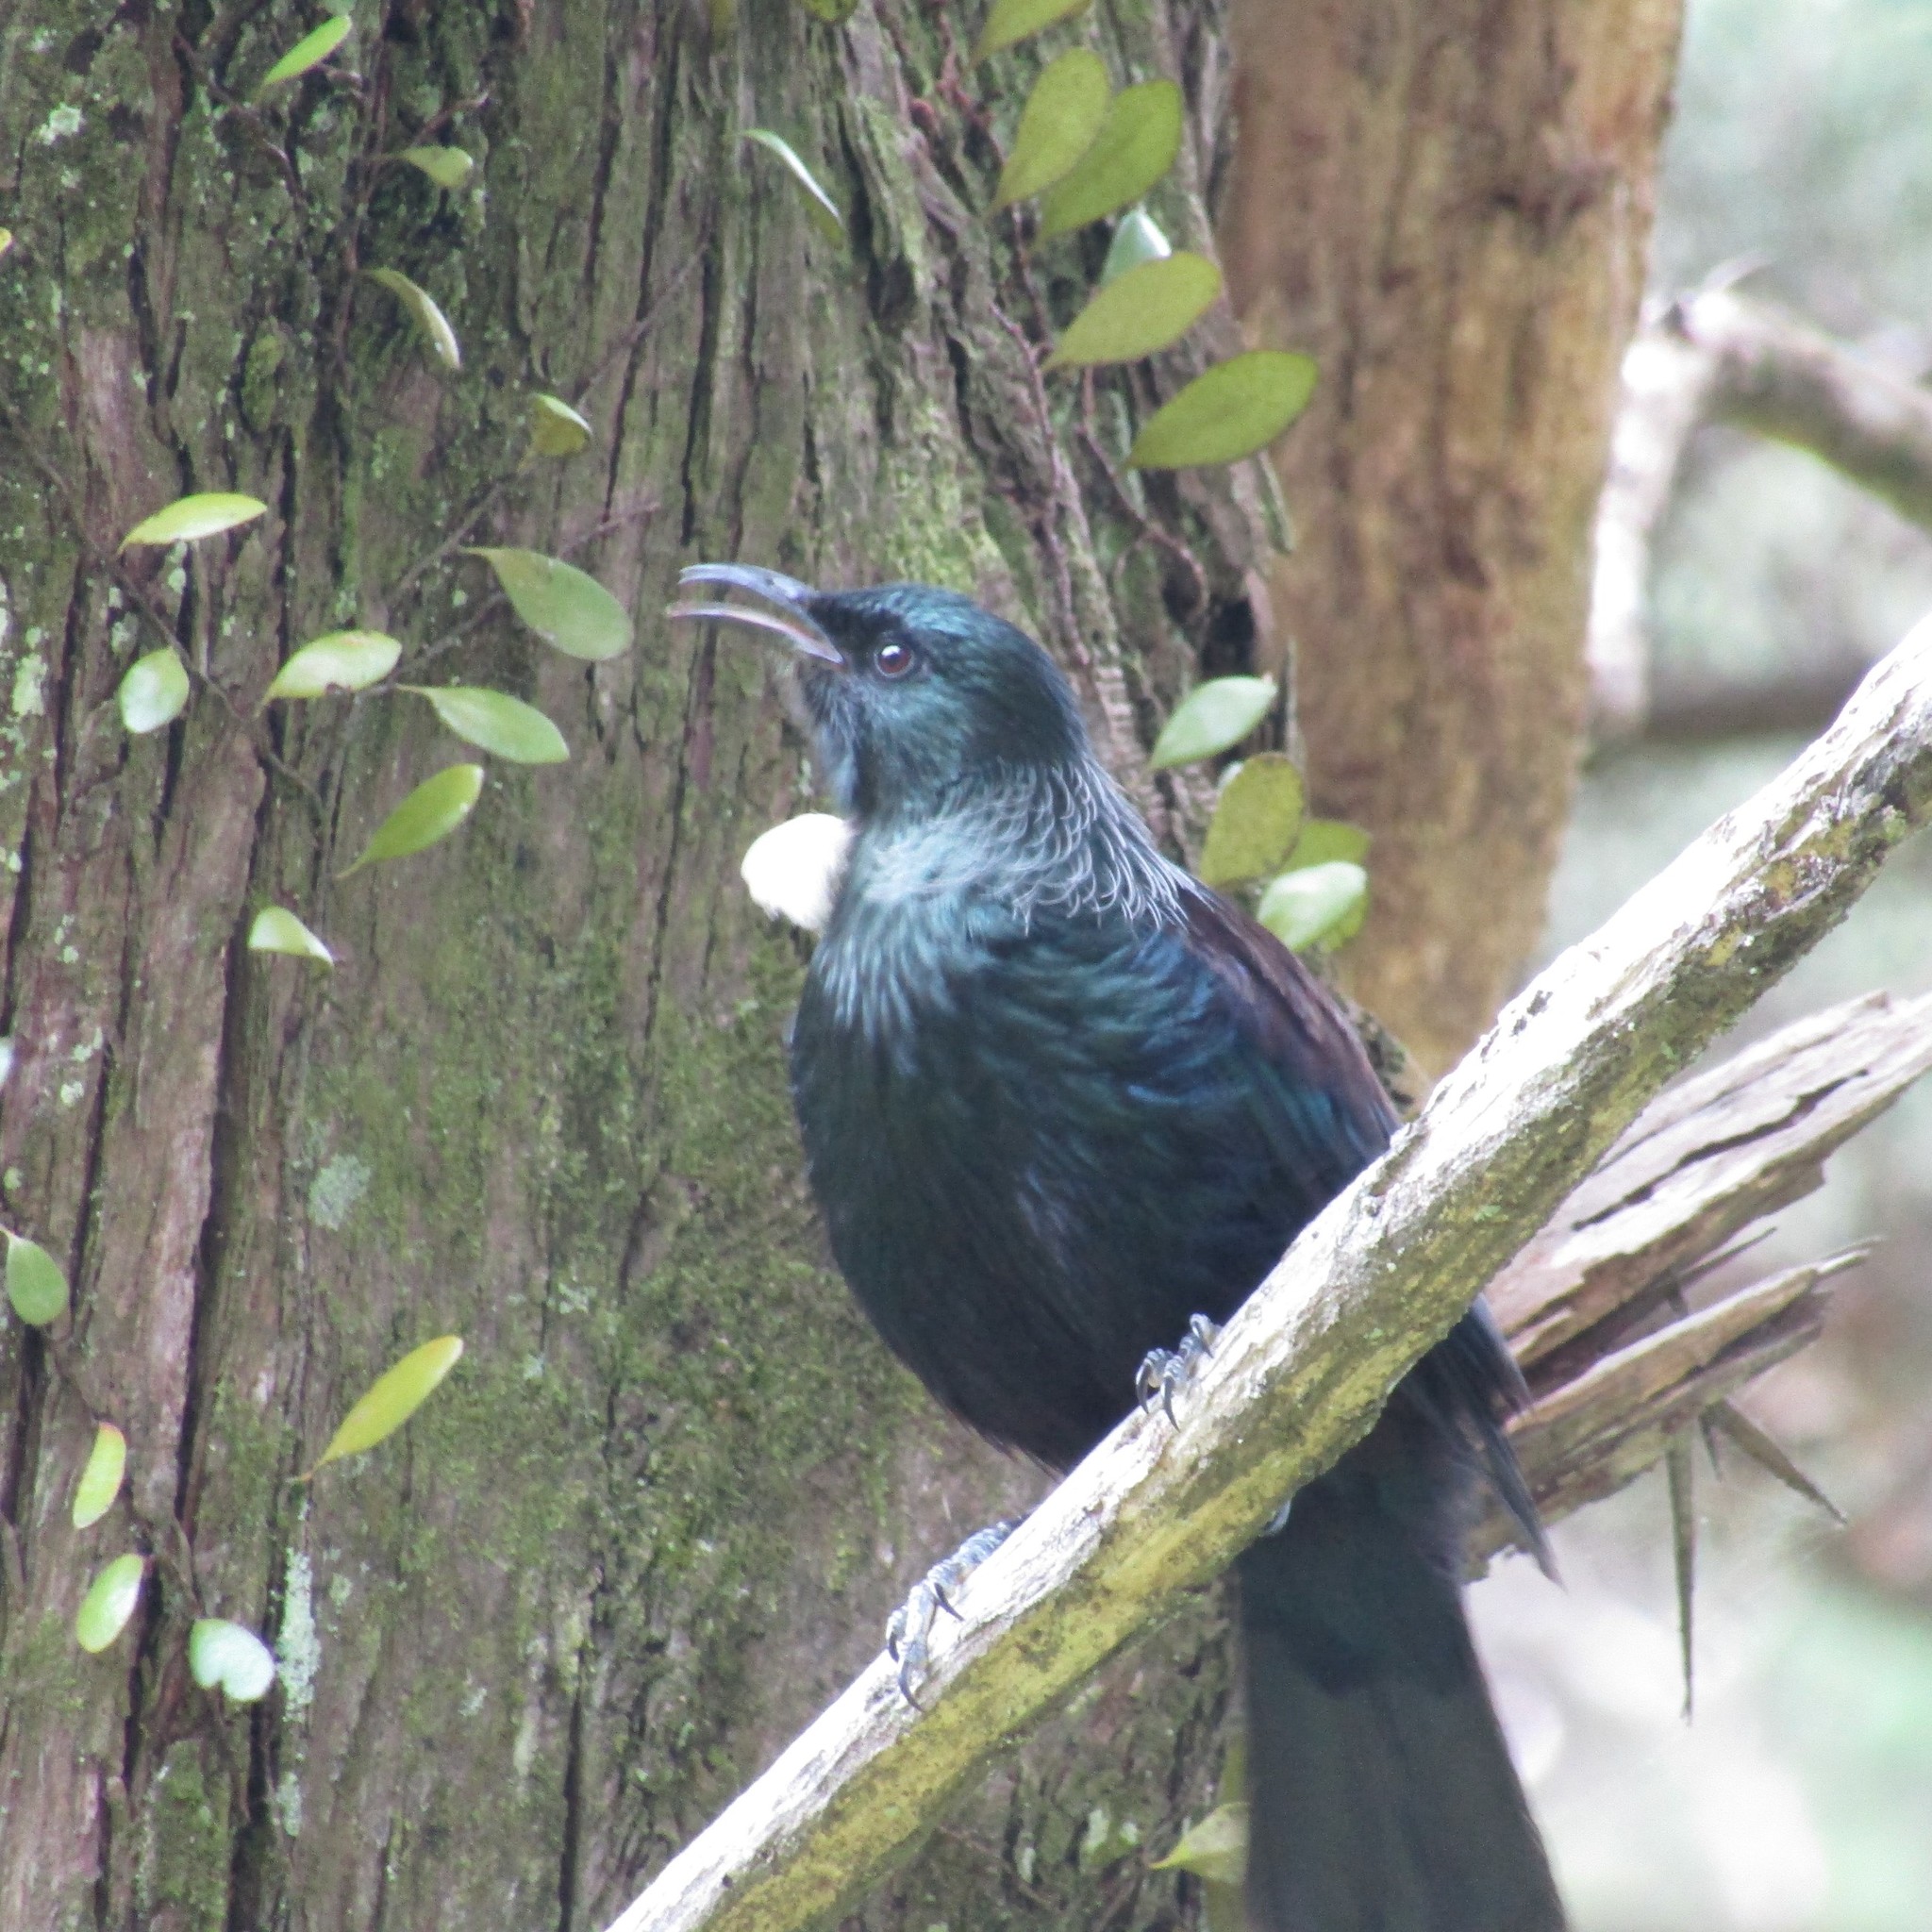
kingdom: Animalia
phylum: Chordata
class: Aves
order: Passeriformes
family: Meliphagidae
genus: Prosthemadera
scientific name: Prosthemadera novaeseelandiae
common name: Tui
